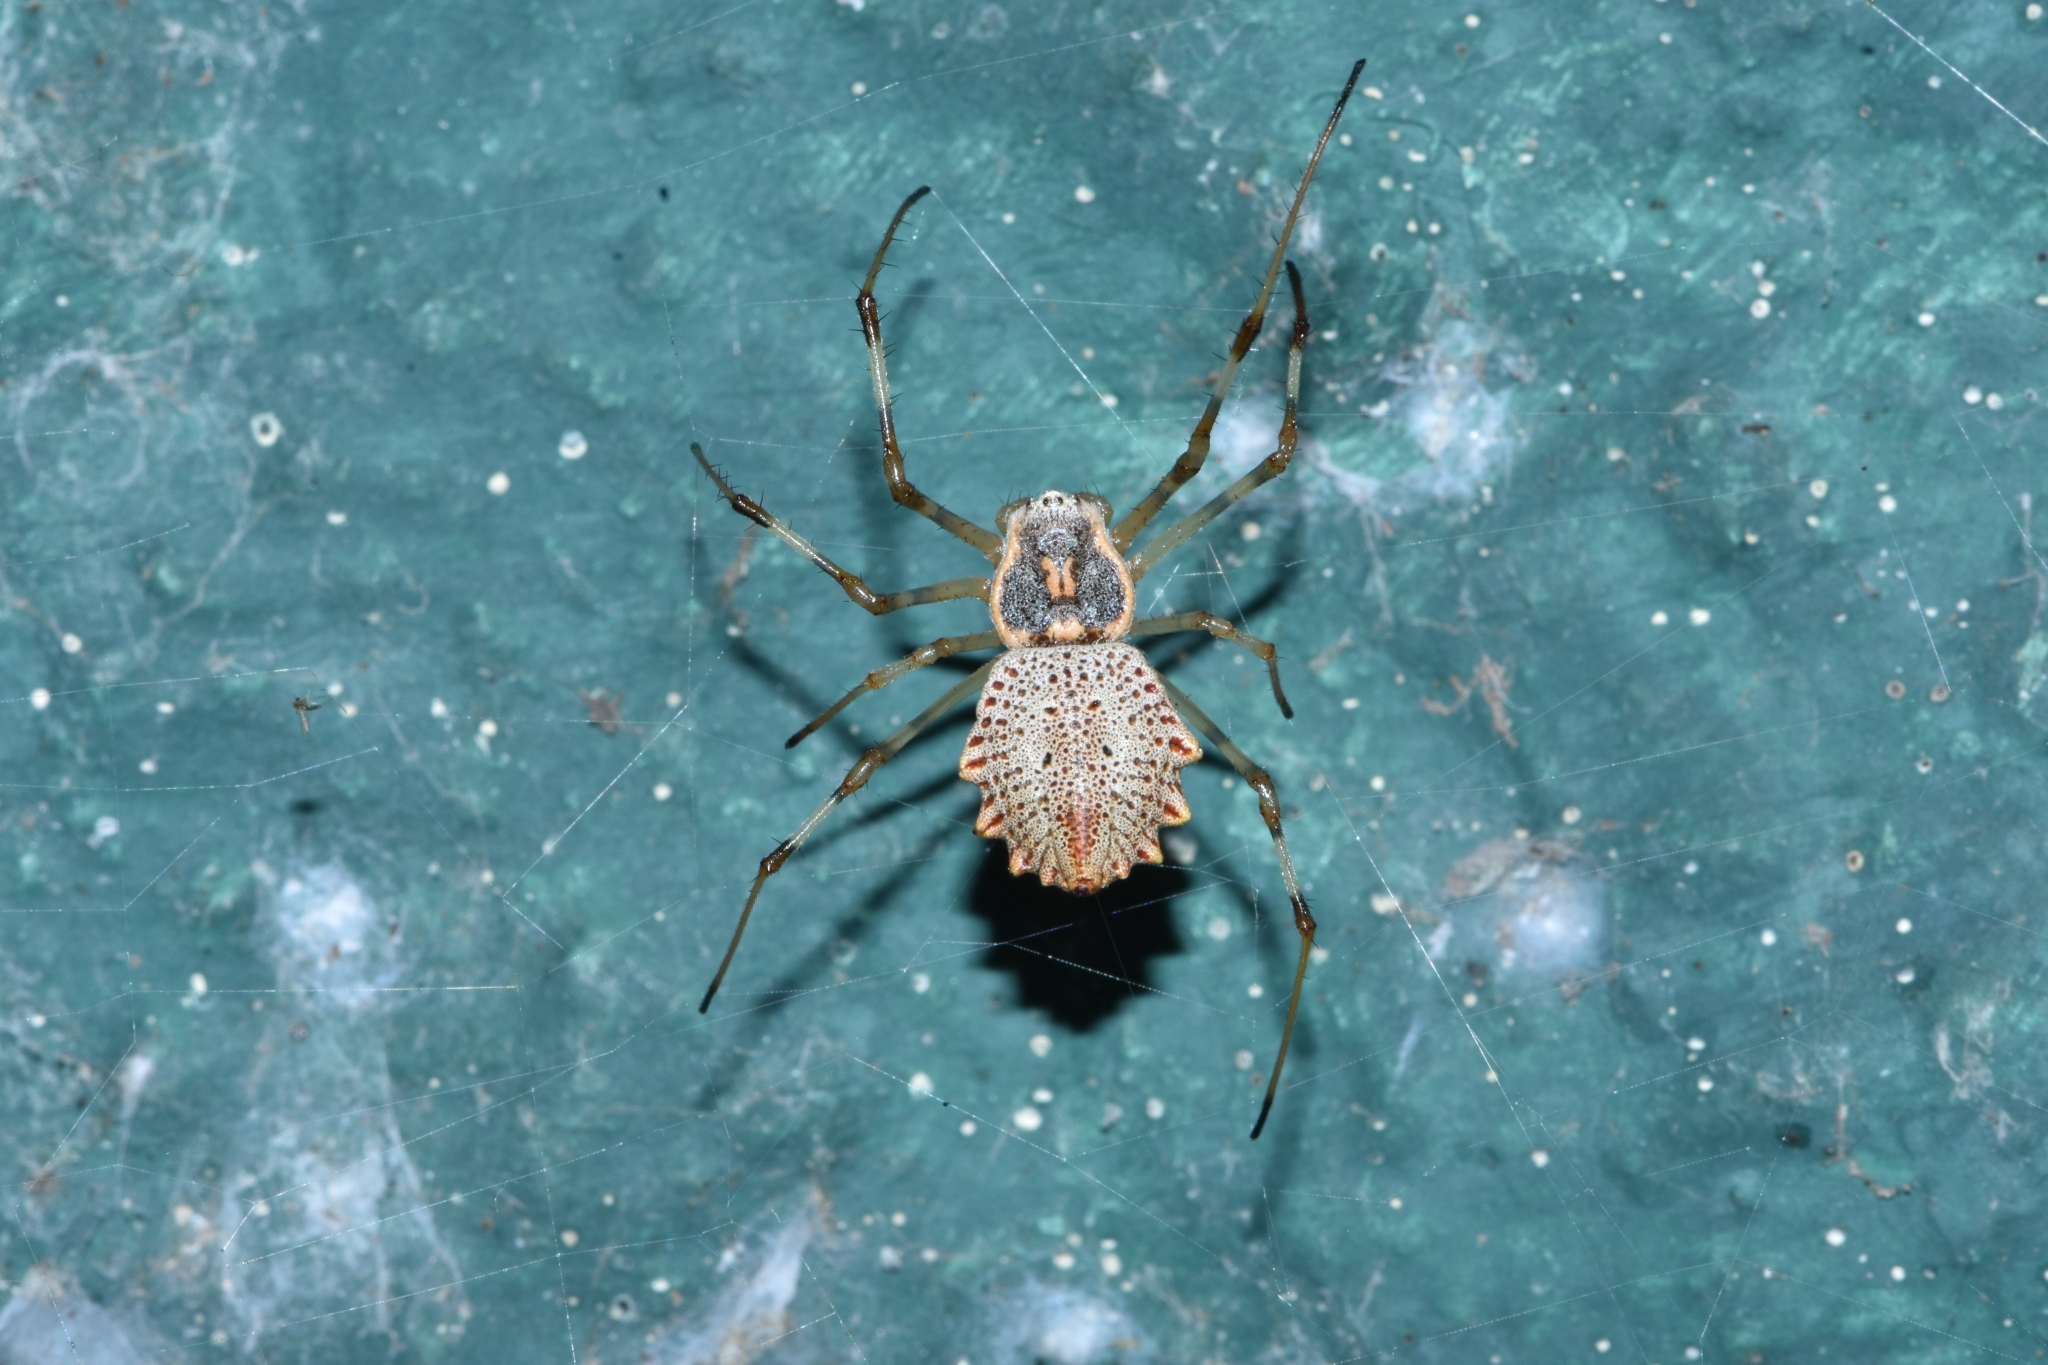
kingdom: Animalia
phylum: Arthropoda
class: Arachnida
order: Araneae
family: Araneidae
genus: Herennia
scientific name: Herennia multipuncta
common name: Spotted coin spider
